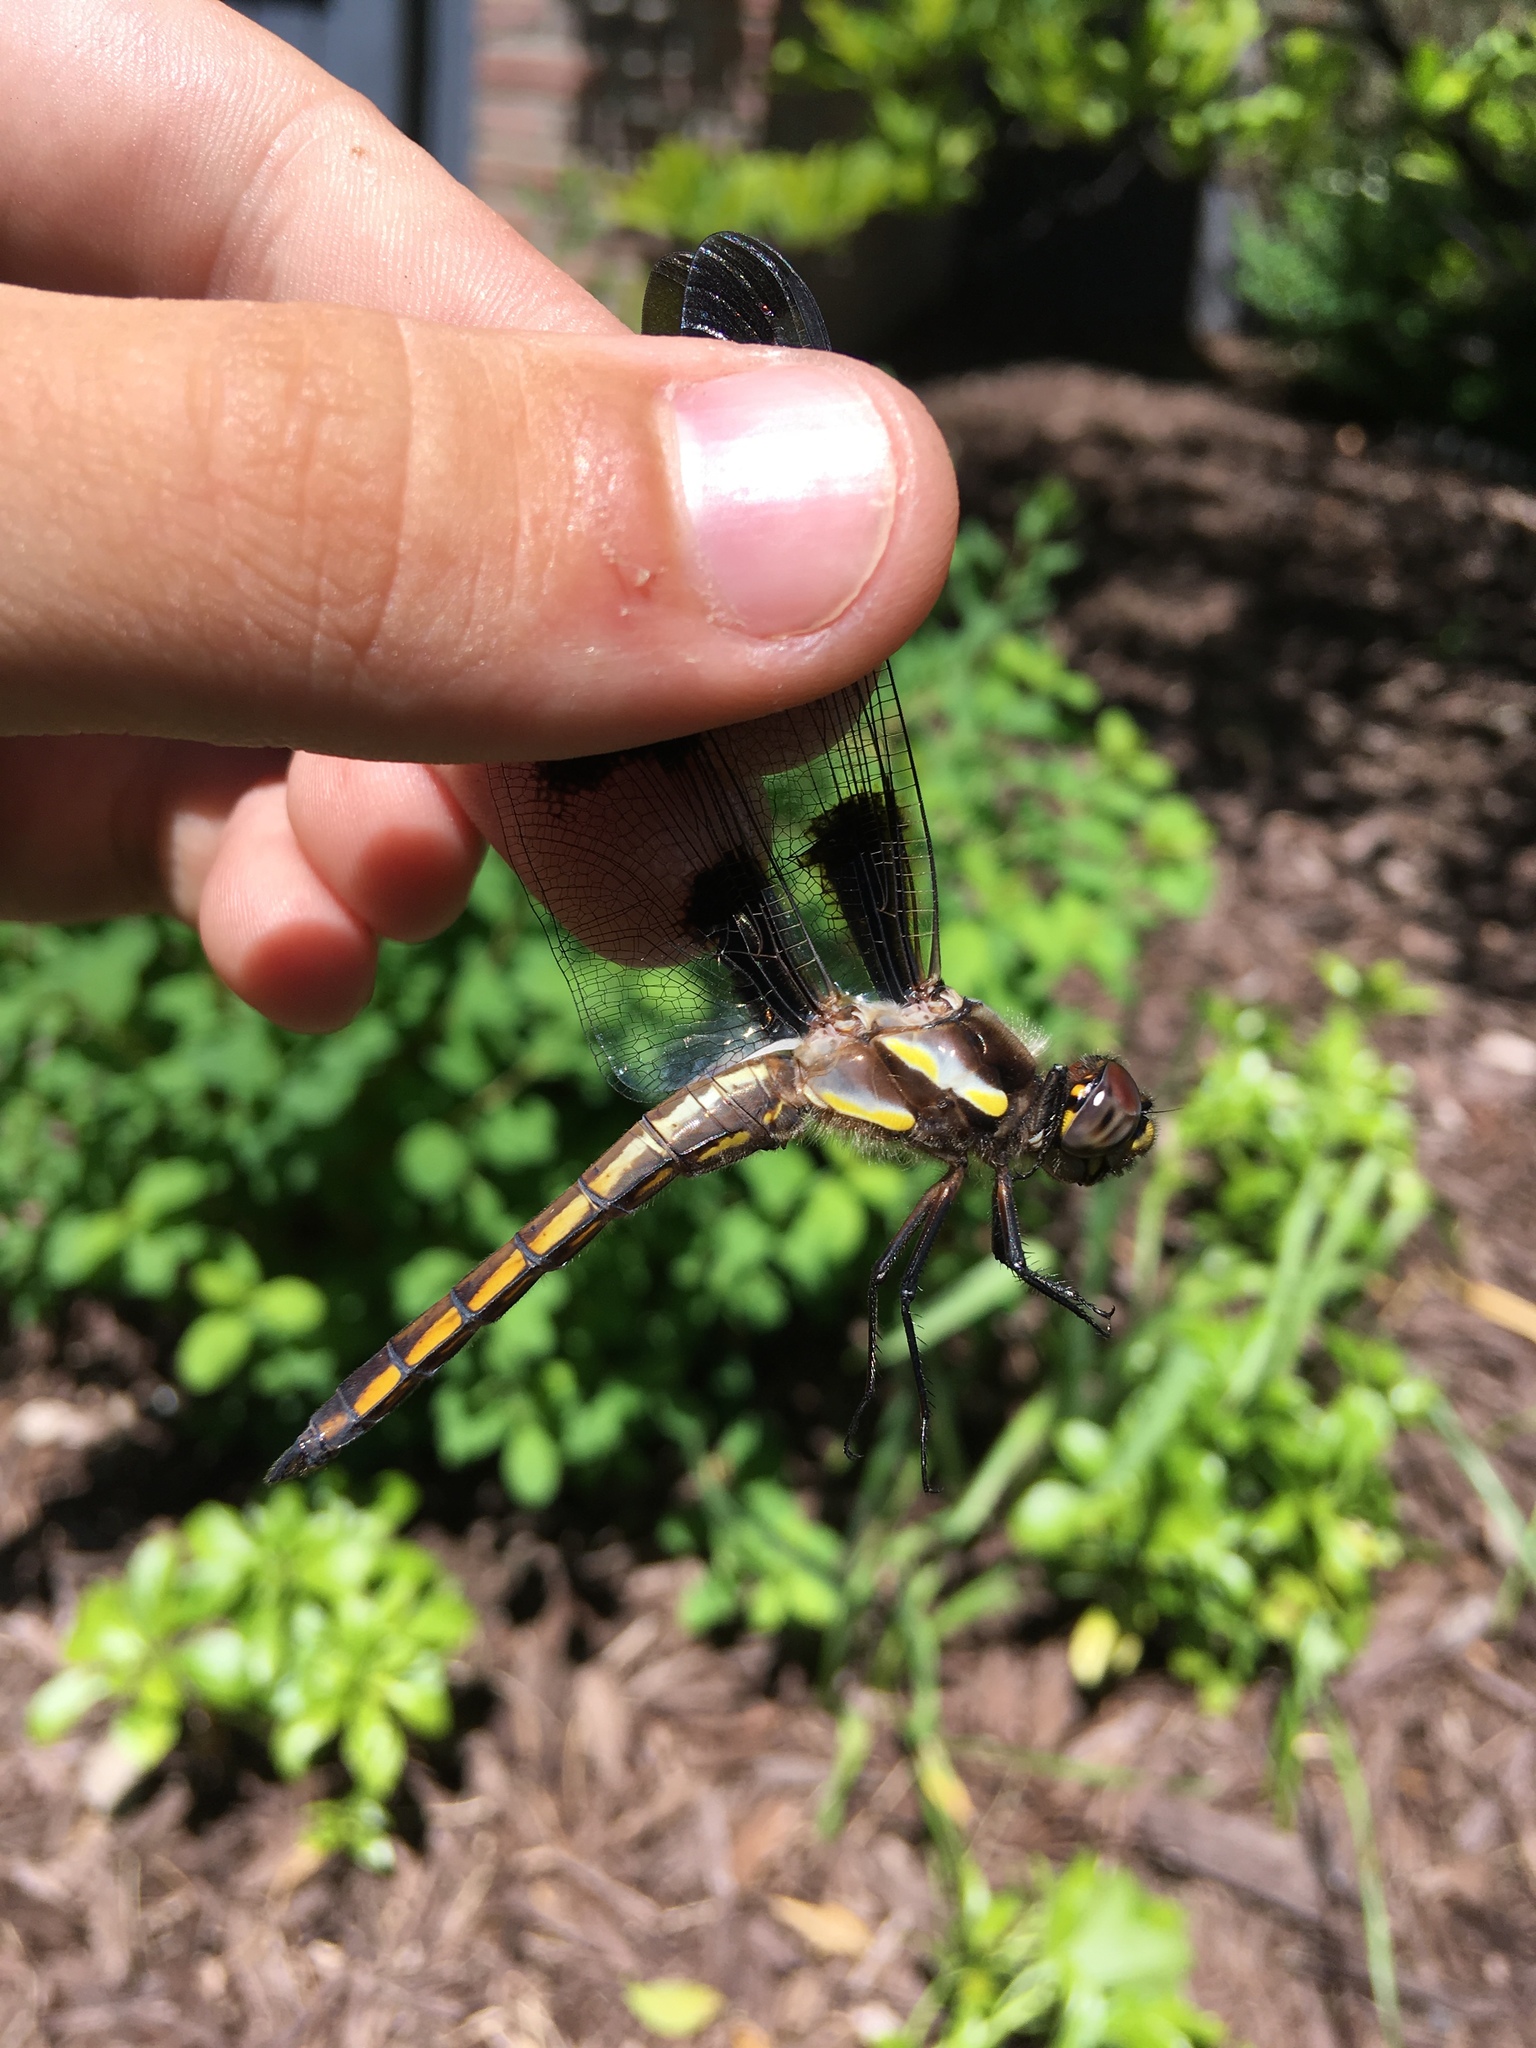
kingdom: Animalia
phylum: Arthropoda
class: Insecta
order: Odonata
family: Libellulidae
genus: Libellula
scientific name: Libellula pulchella
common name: Twelve-spotted skimmer
